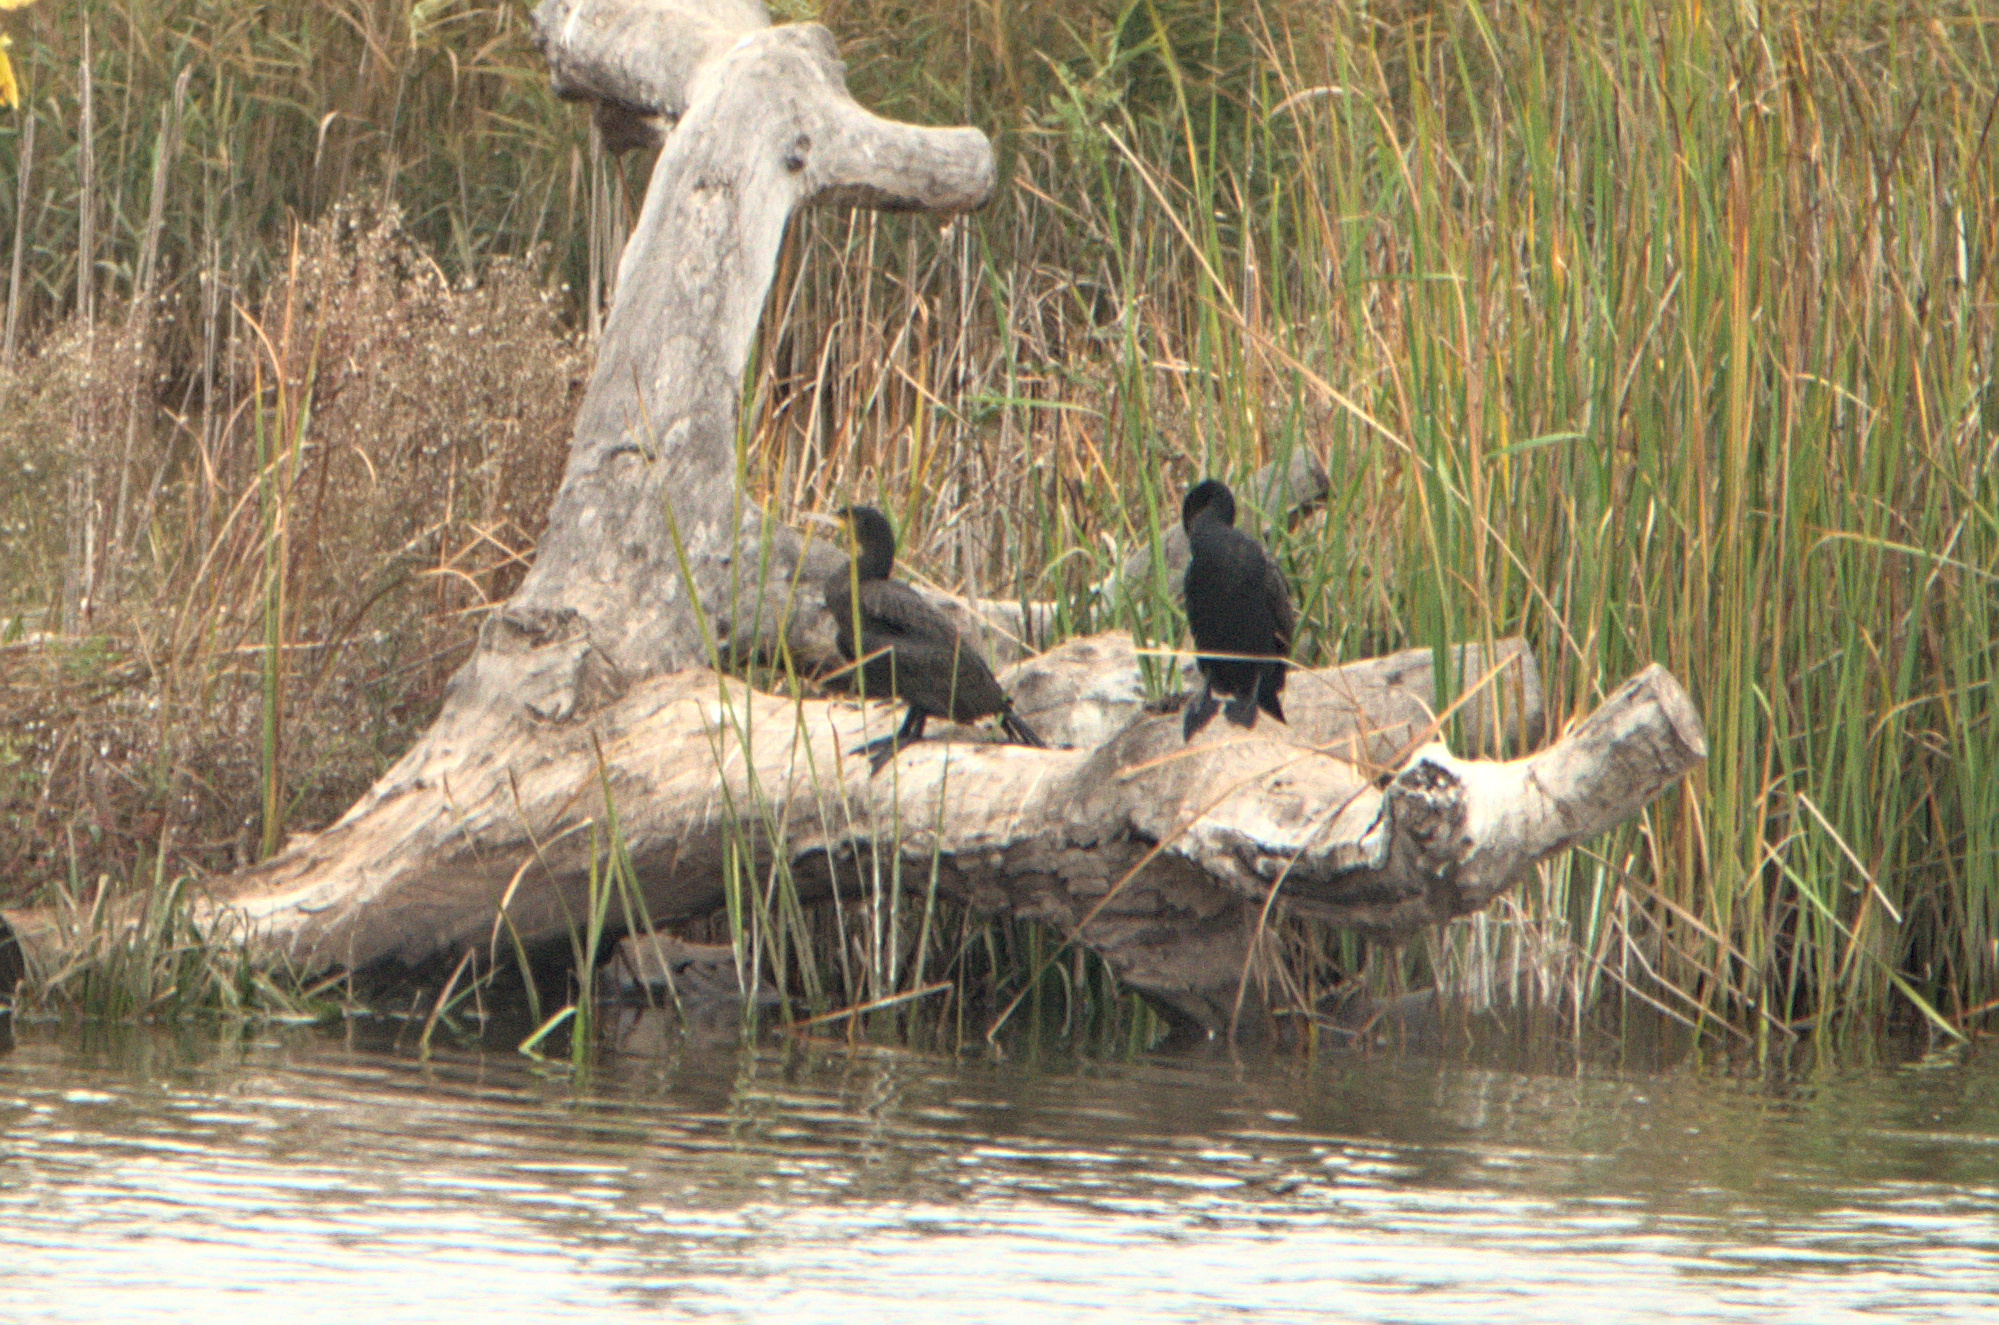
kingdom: Animalia
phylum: Chordata
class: Aves
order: Suliformes
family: Phalacrocoracidae
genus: Phalacrocorax
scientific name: Phalacrocorax carbo
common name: Great cormorant
